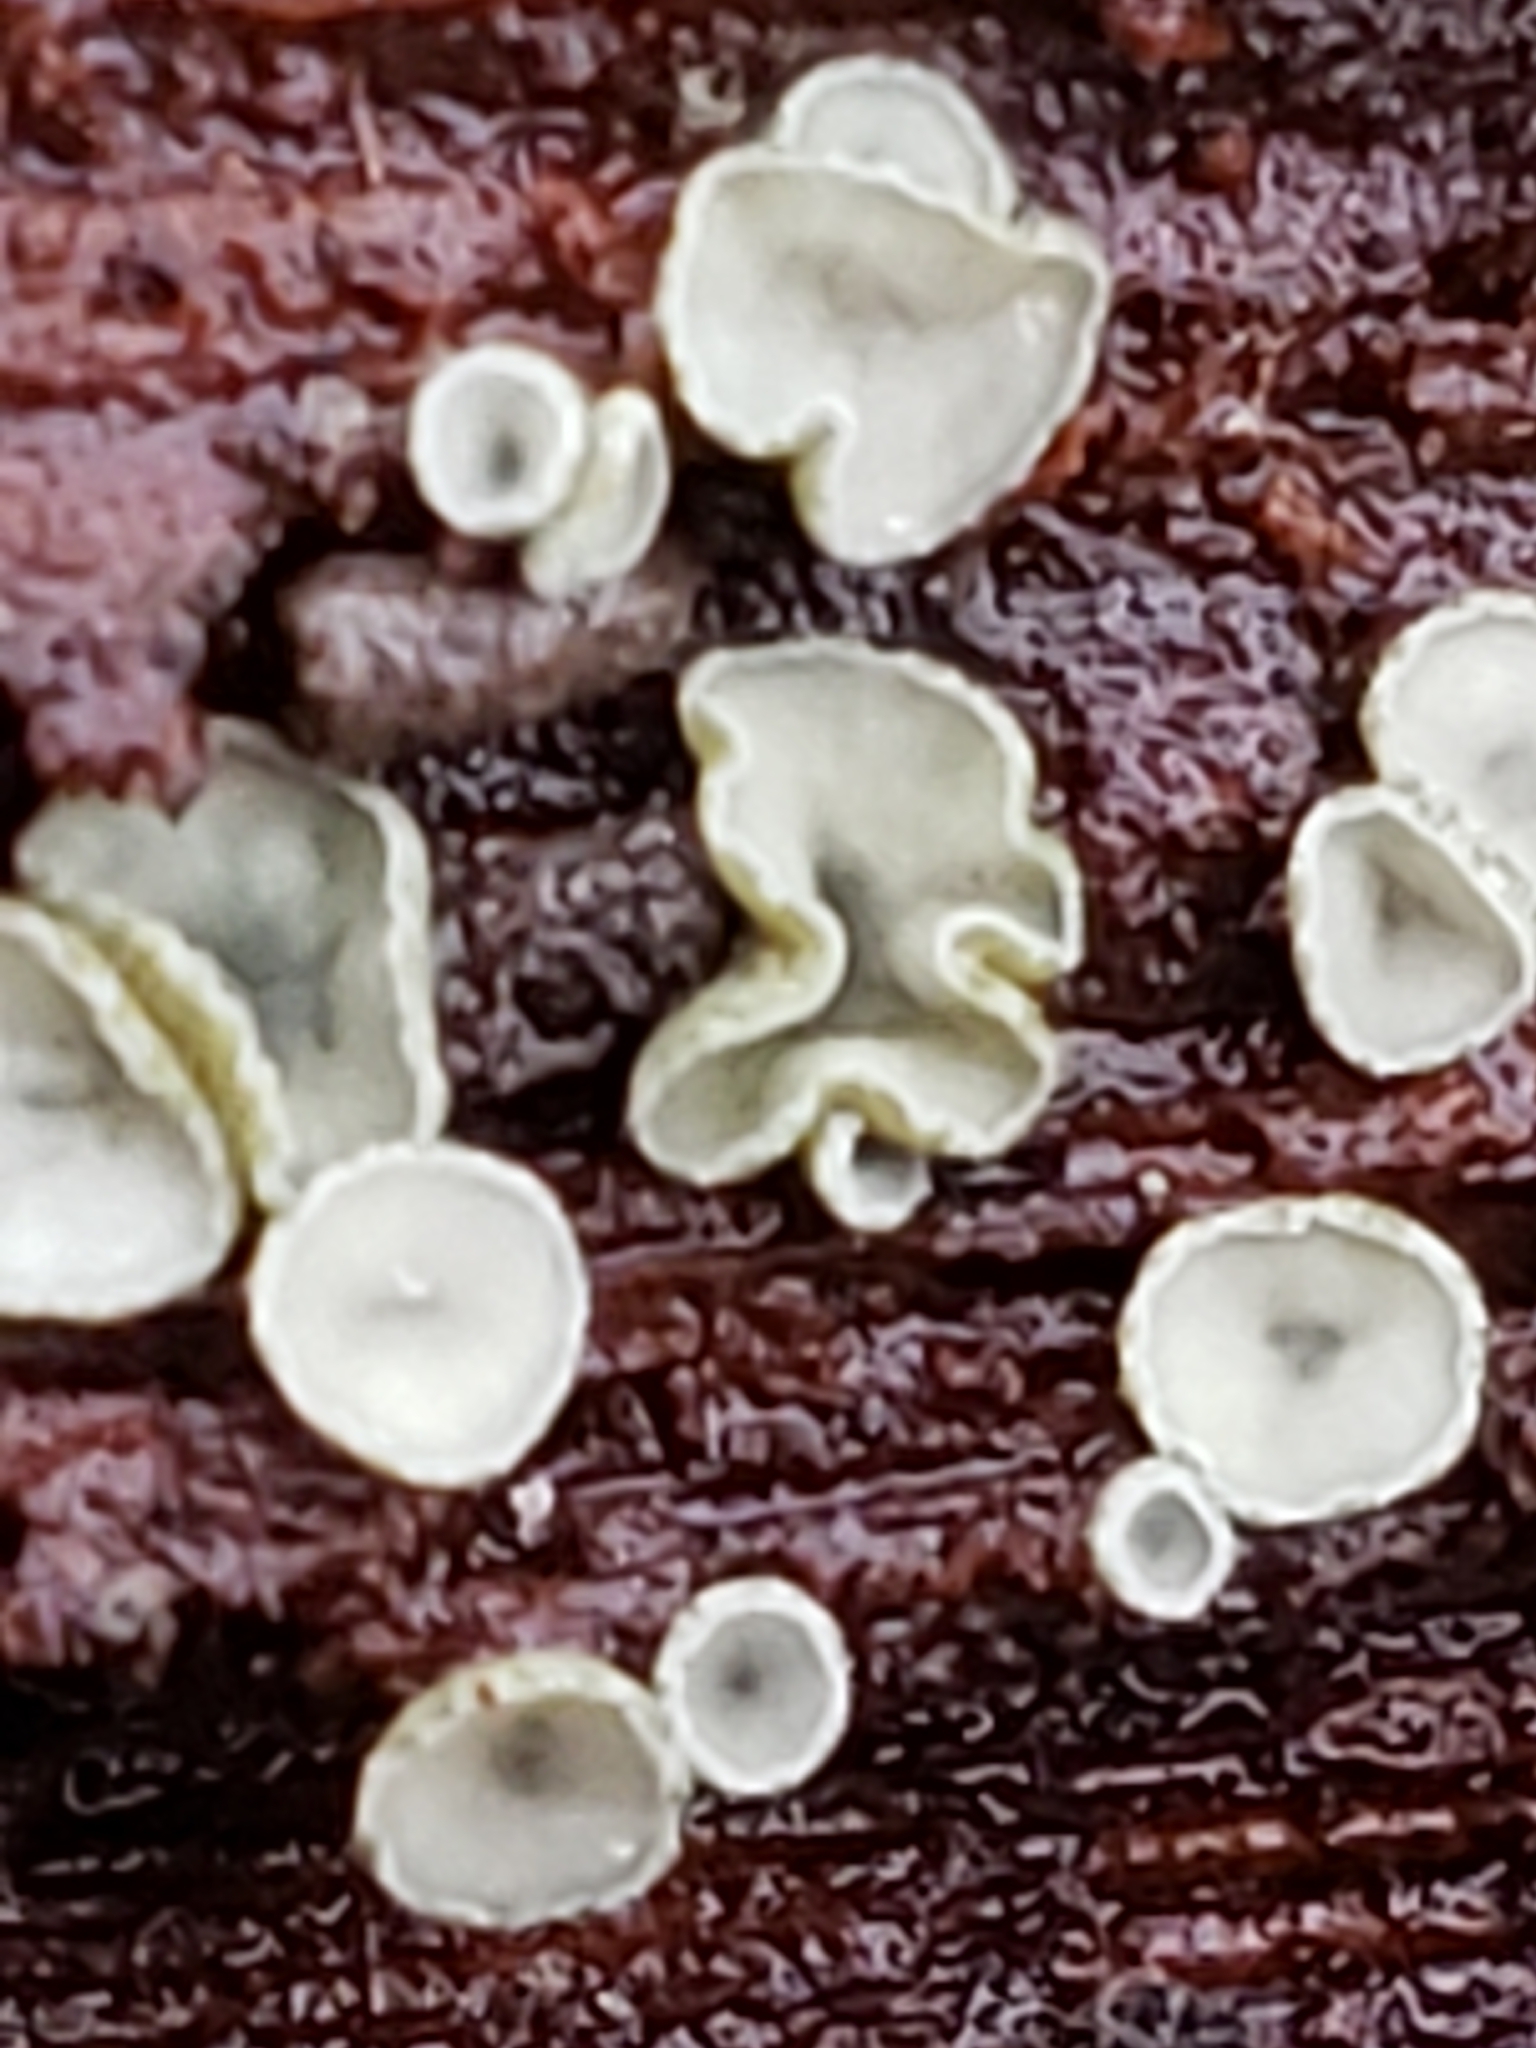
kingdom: Fungi
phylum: Ascomycota
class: Leotiomycetes
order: Helotiales
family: Chlorospleniaceae
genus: Chlorosplenium
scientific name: Chlorosplenium chlora
